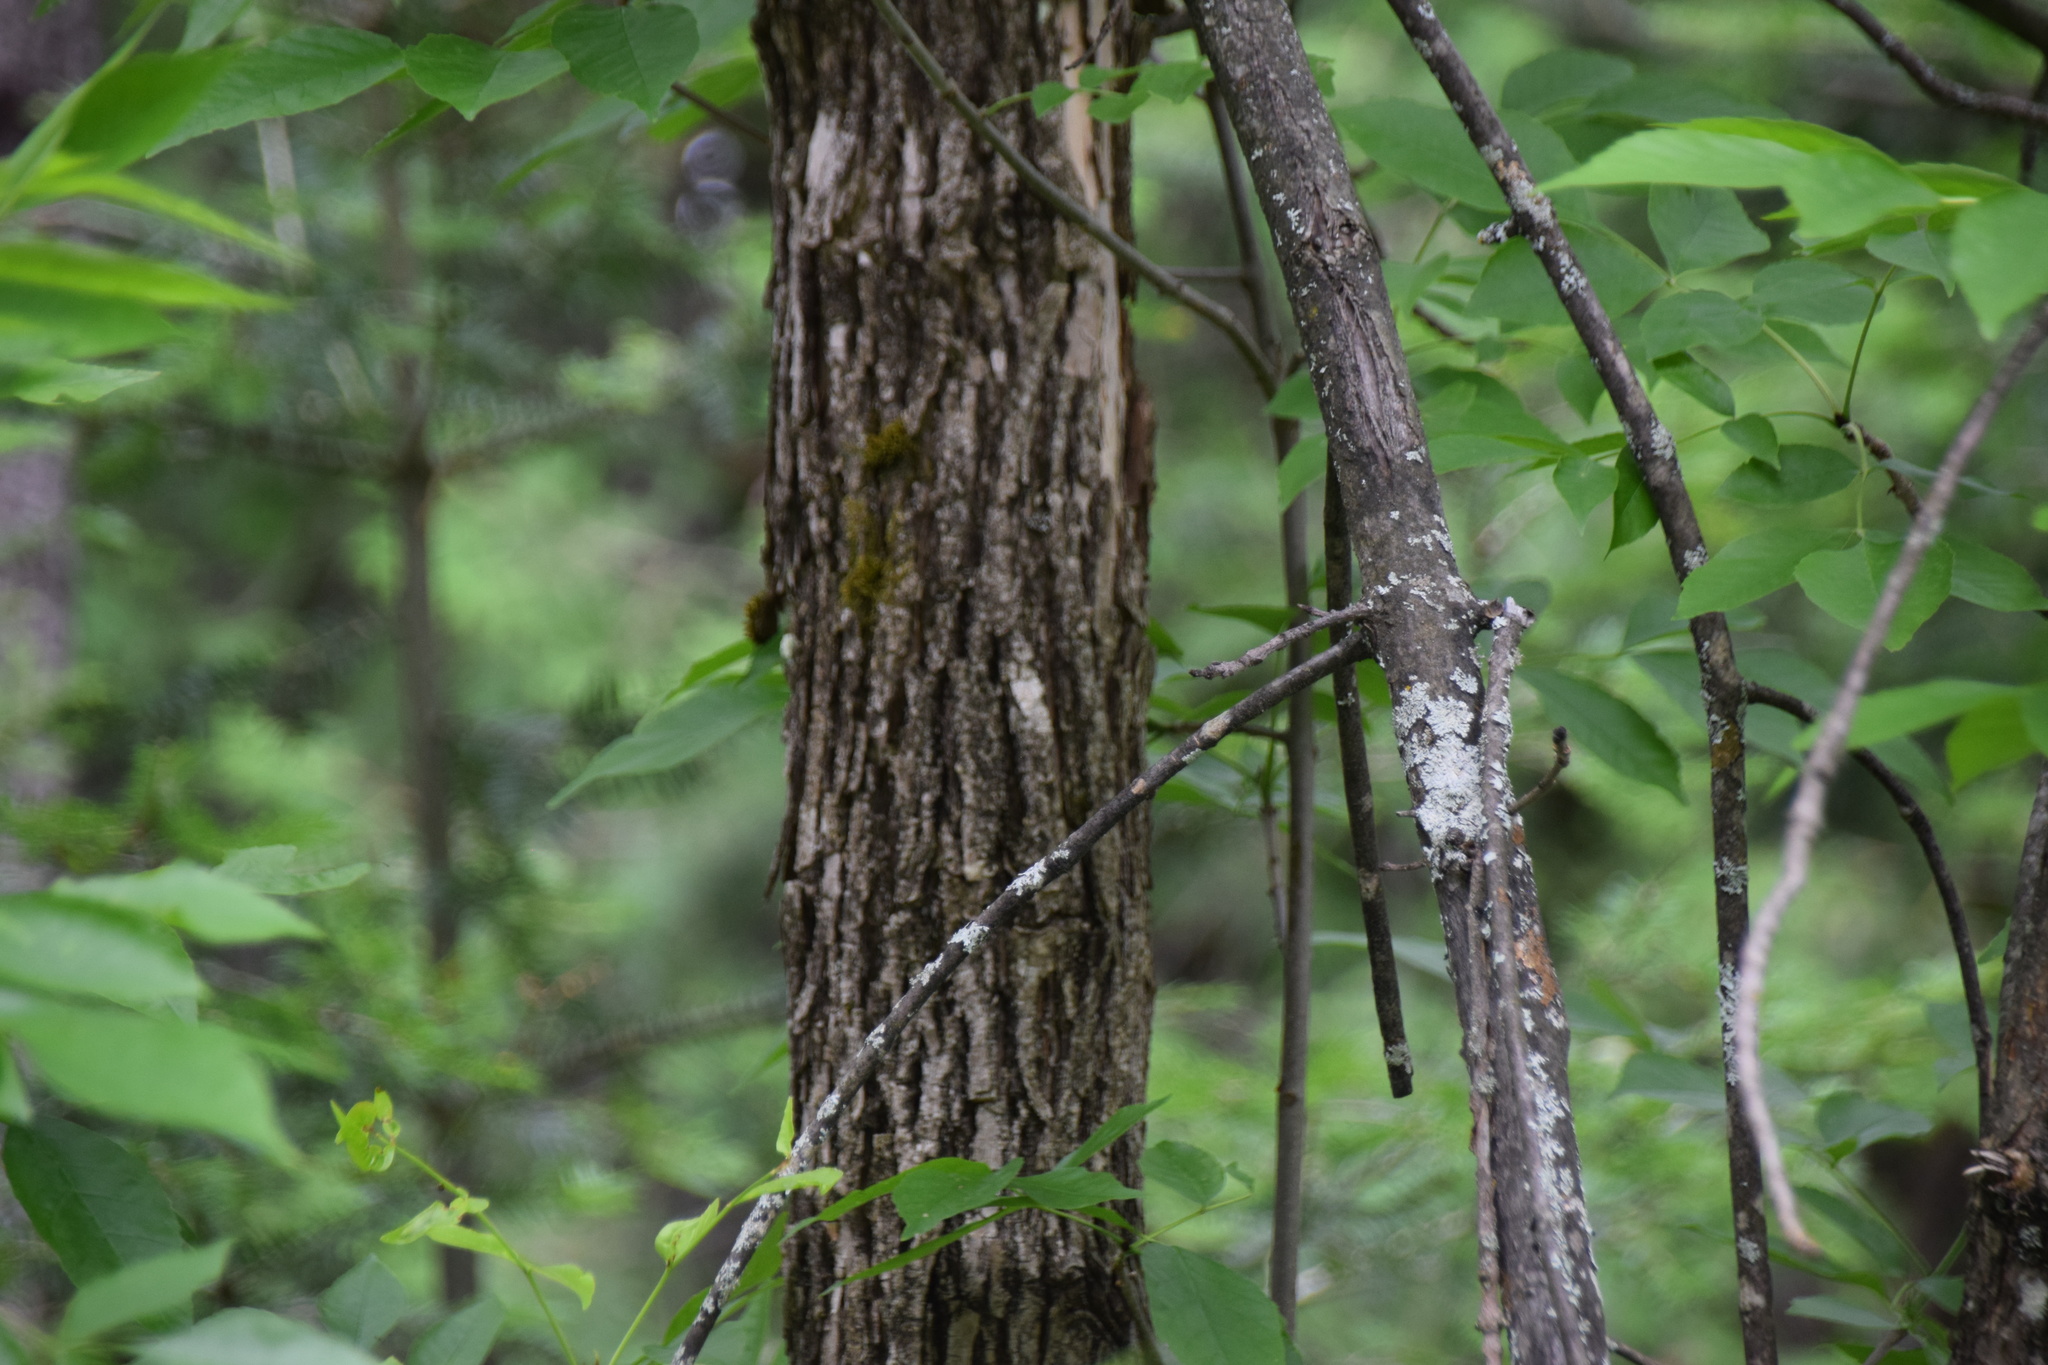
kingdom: Plantae
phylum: Tracheophyta
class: Magnoliopsida
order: Lamiales
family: Oleaceae
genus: Fraxinus
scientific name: Fraxinus pennsylvanica
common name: Green ash
